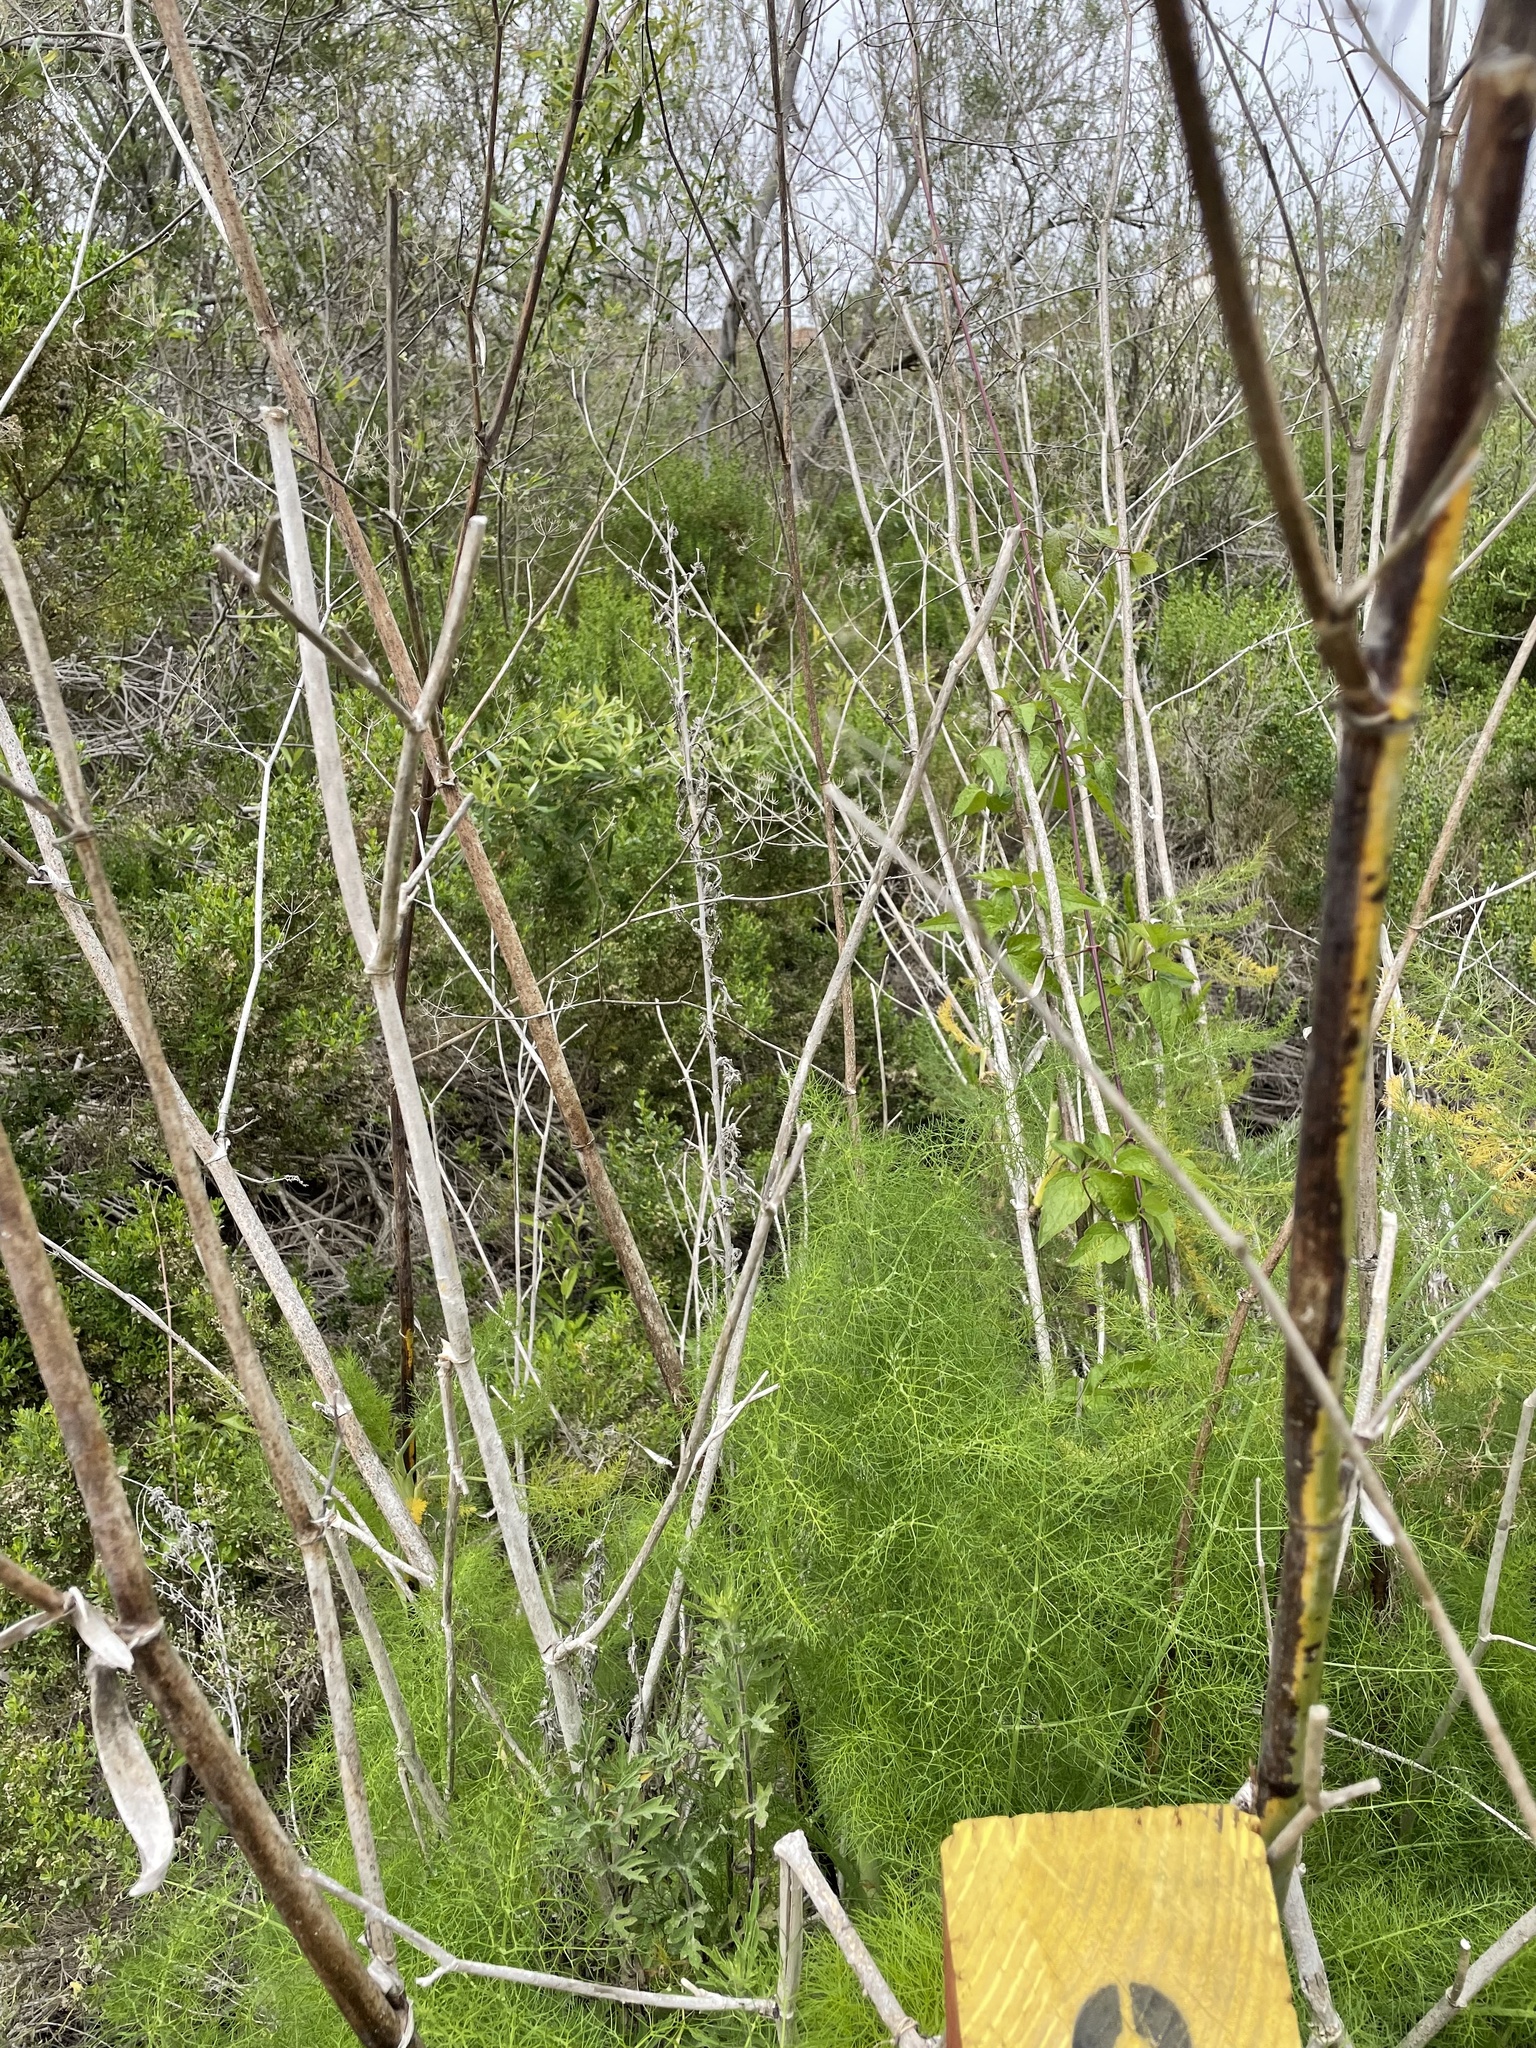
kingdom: Plantae
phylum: Tracheophyta
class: Magnoliopsida
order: Apiales
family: Apiaceae
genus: Foeniculum
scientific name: Foeniculum vulgare
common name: Fennel
